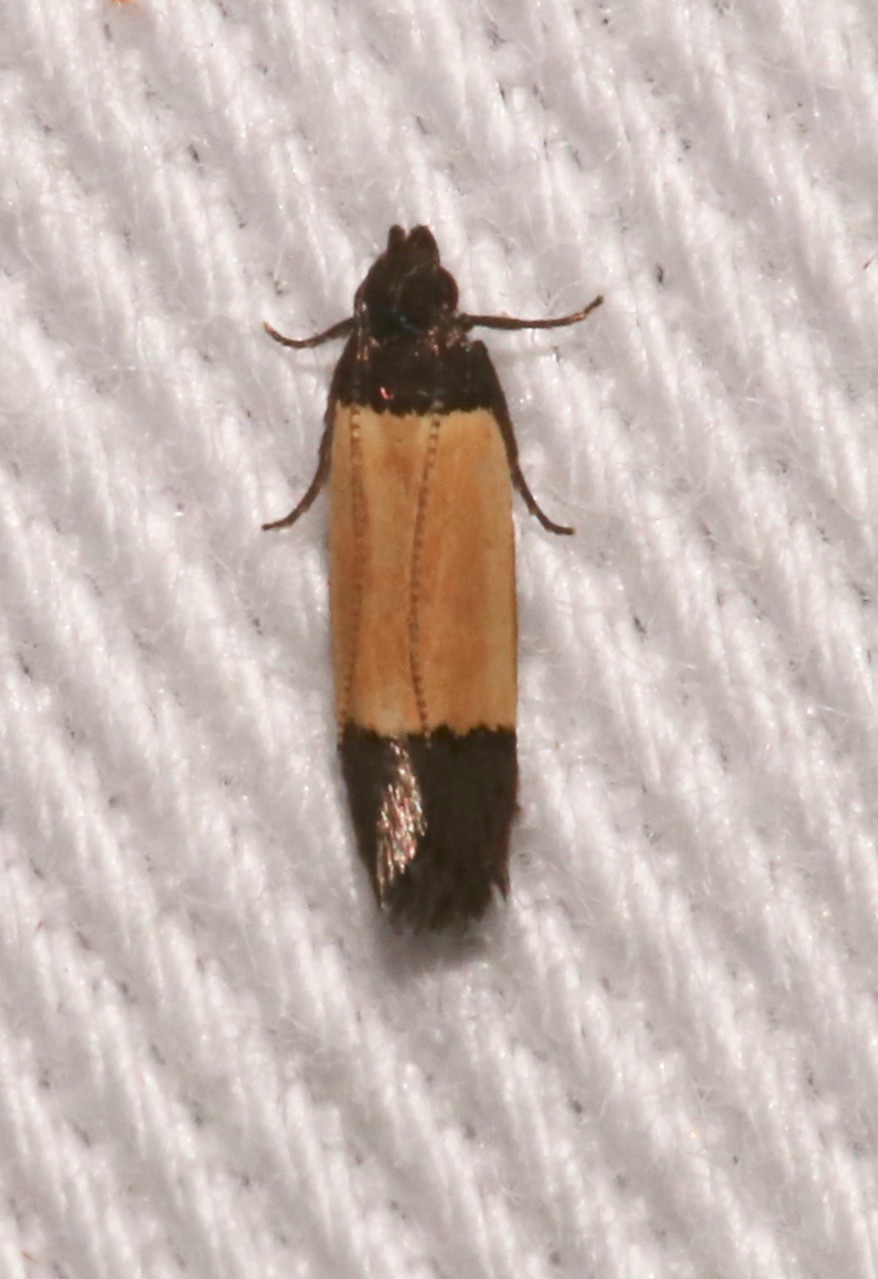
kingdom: Animalia
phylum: Arthropoda
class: Insecta
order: Lepidoptera
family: Gelechiidae
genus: Anacampsis
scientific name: Anacampsis coverdalella
